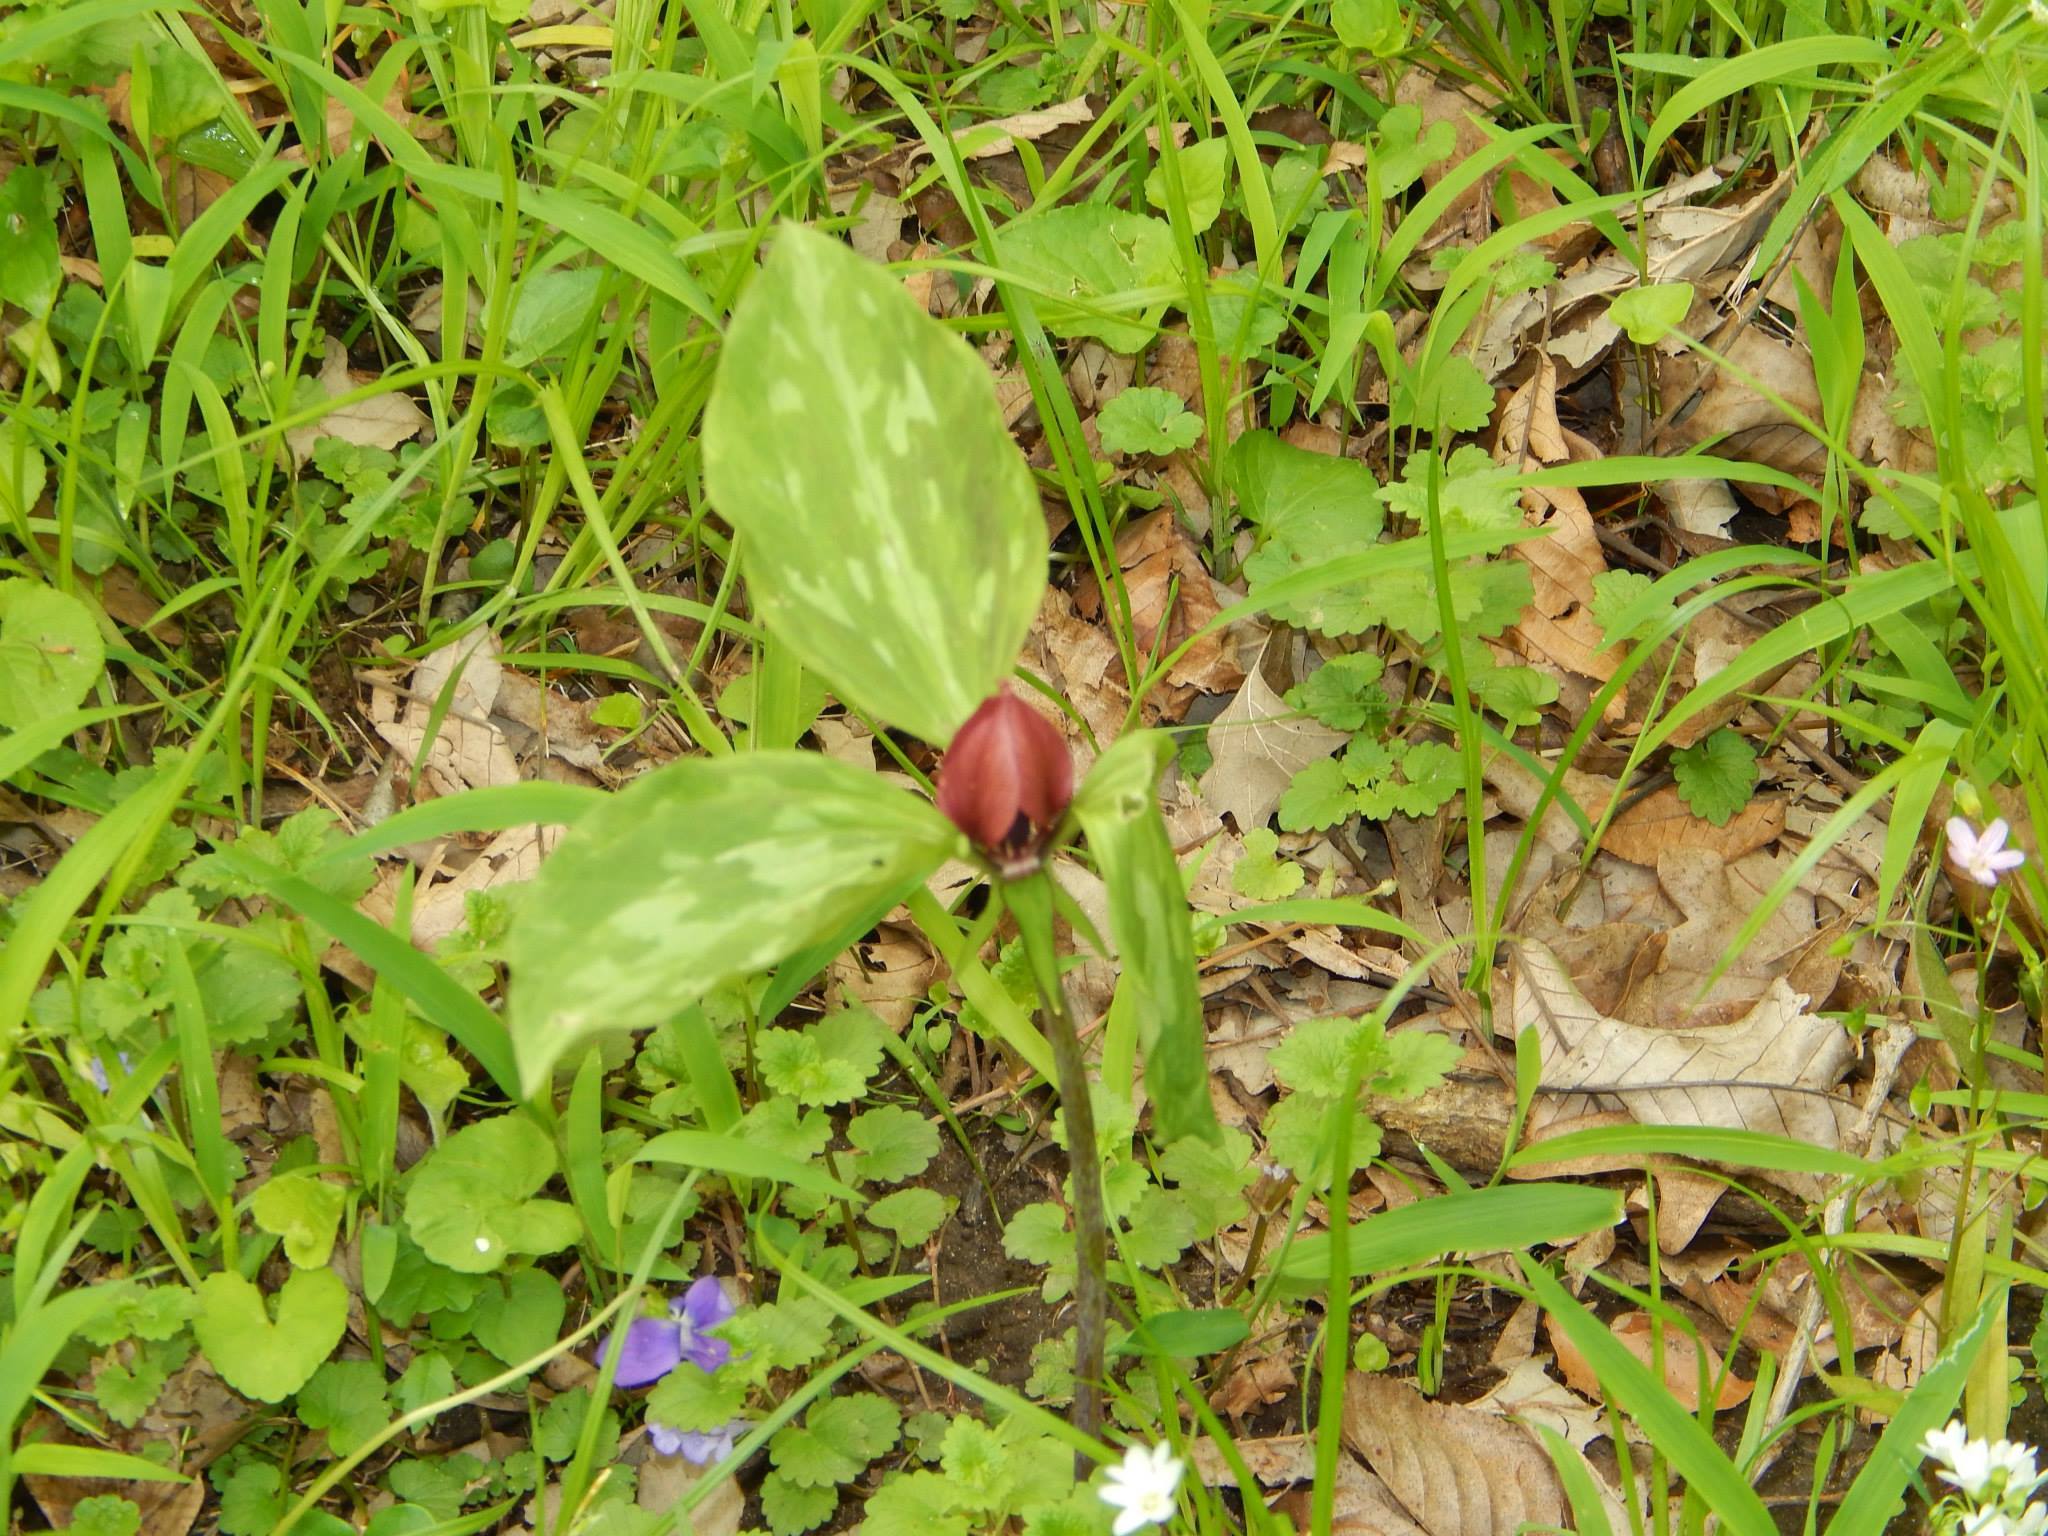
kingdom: Plantae
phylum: Tracheophyta
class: Liliopsida
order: Liliales
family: Melanthiaceae
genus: Trillium
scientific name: Trillium recurvatum
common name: Bloody butcher
